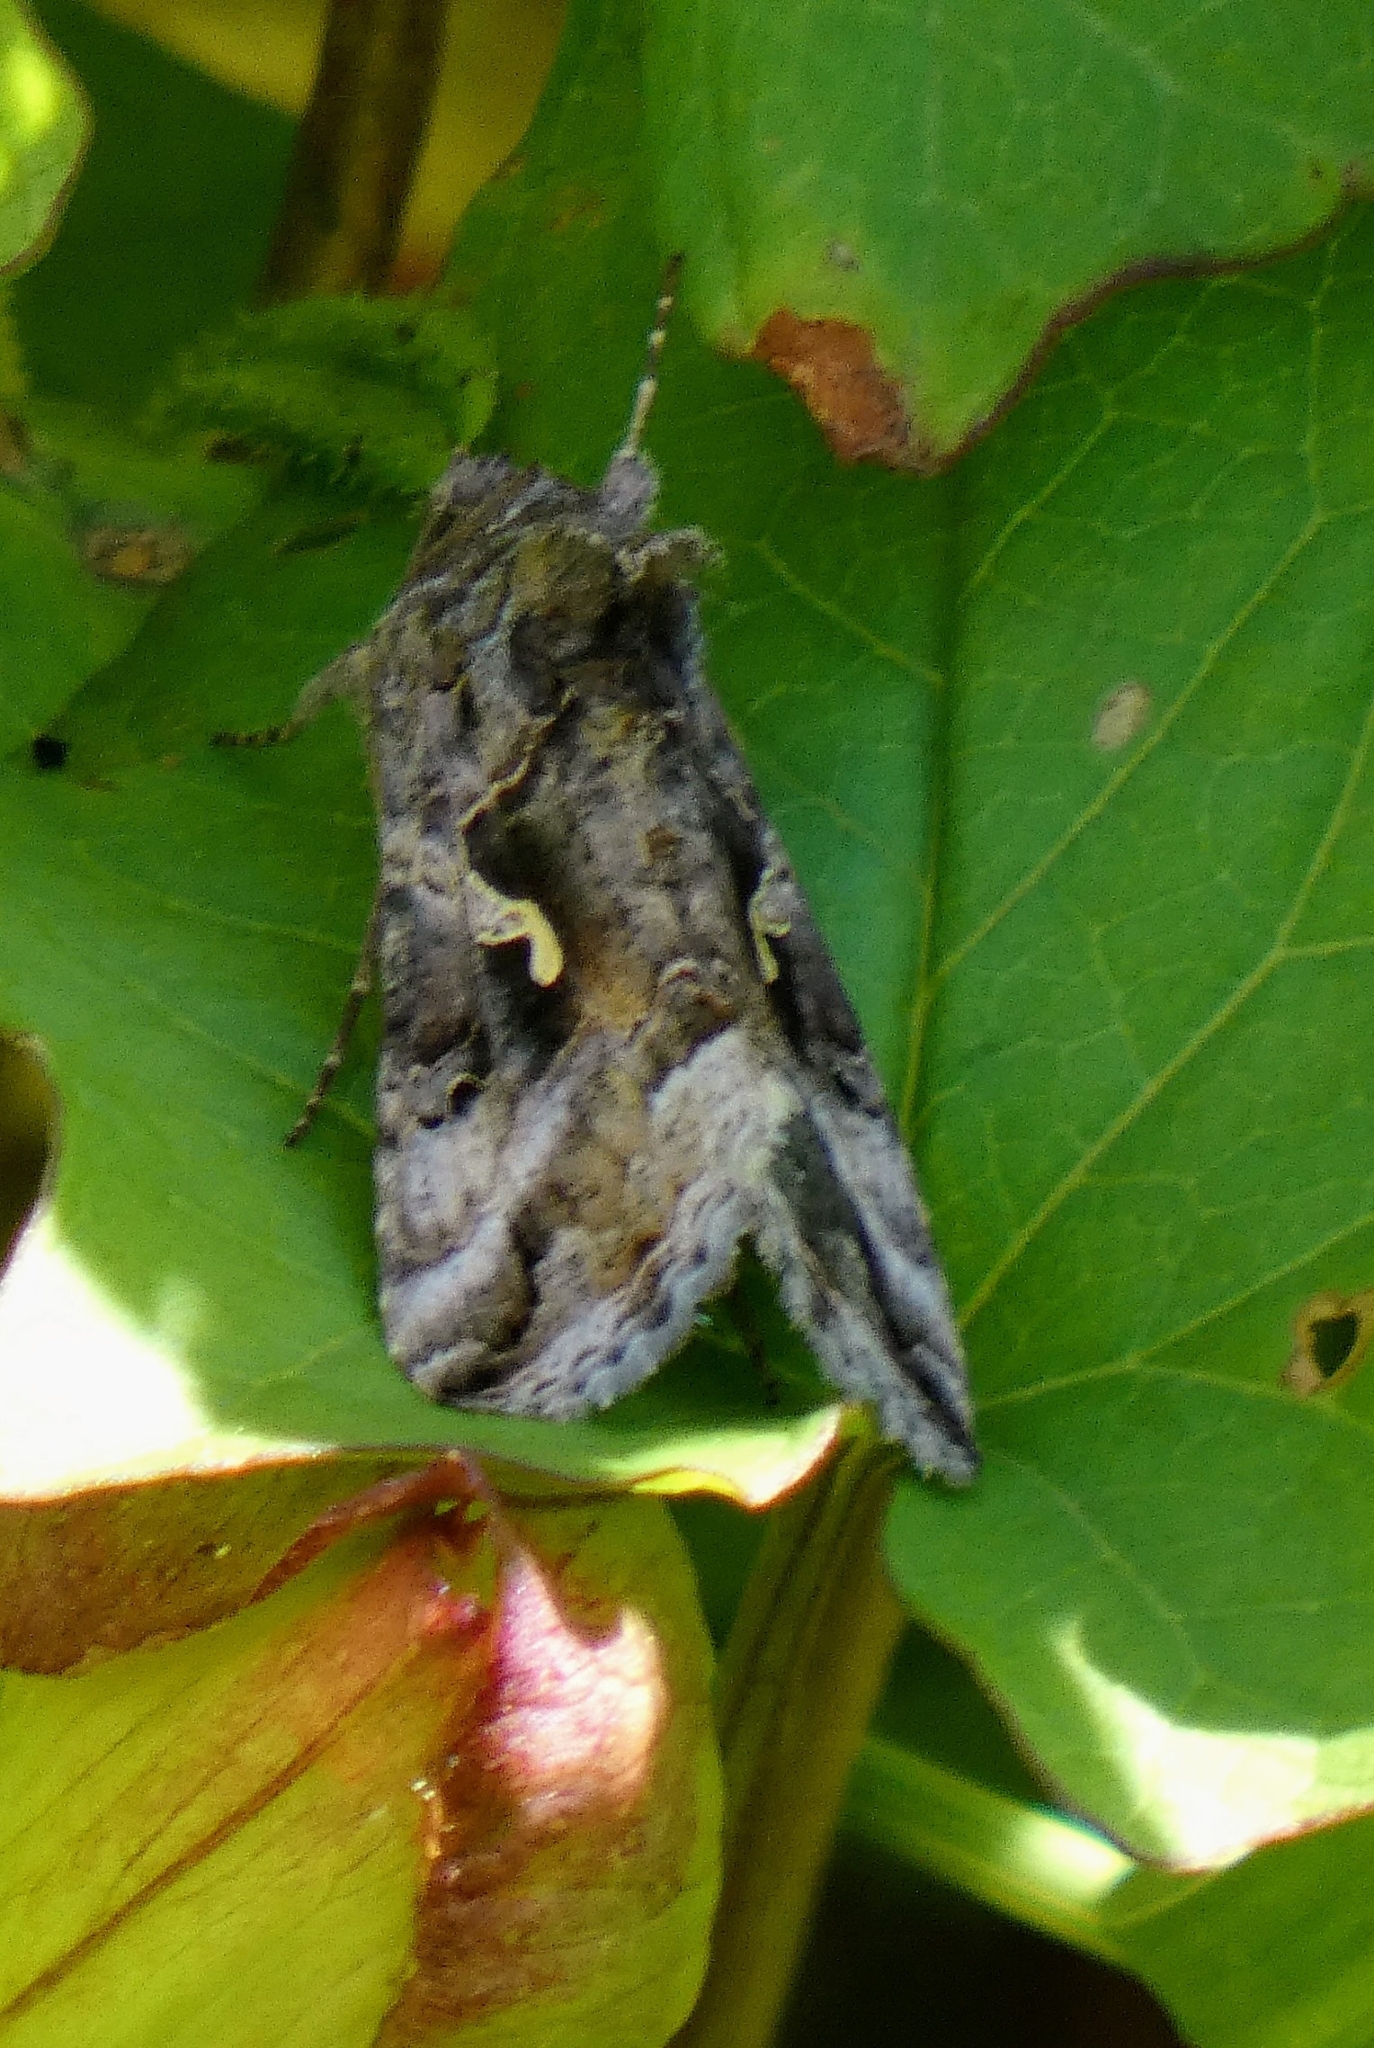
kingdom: Animalia
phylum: Arthropoda
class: Insecta
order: Lepidoptera
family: Noctuidae
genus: Autographa
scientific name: Autographa gamma
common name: Silver y
